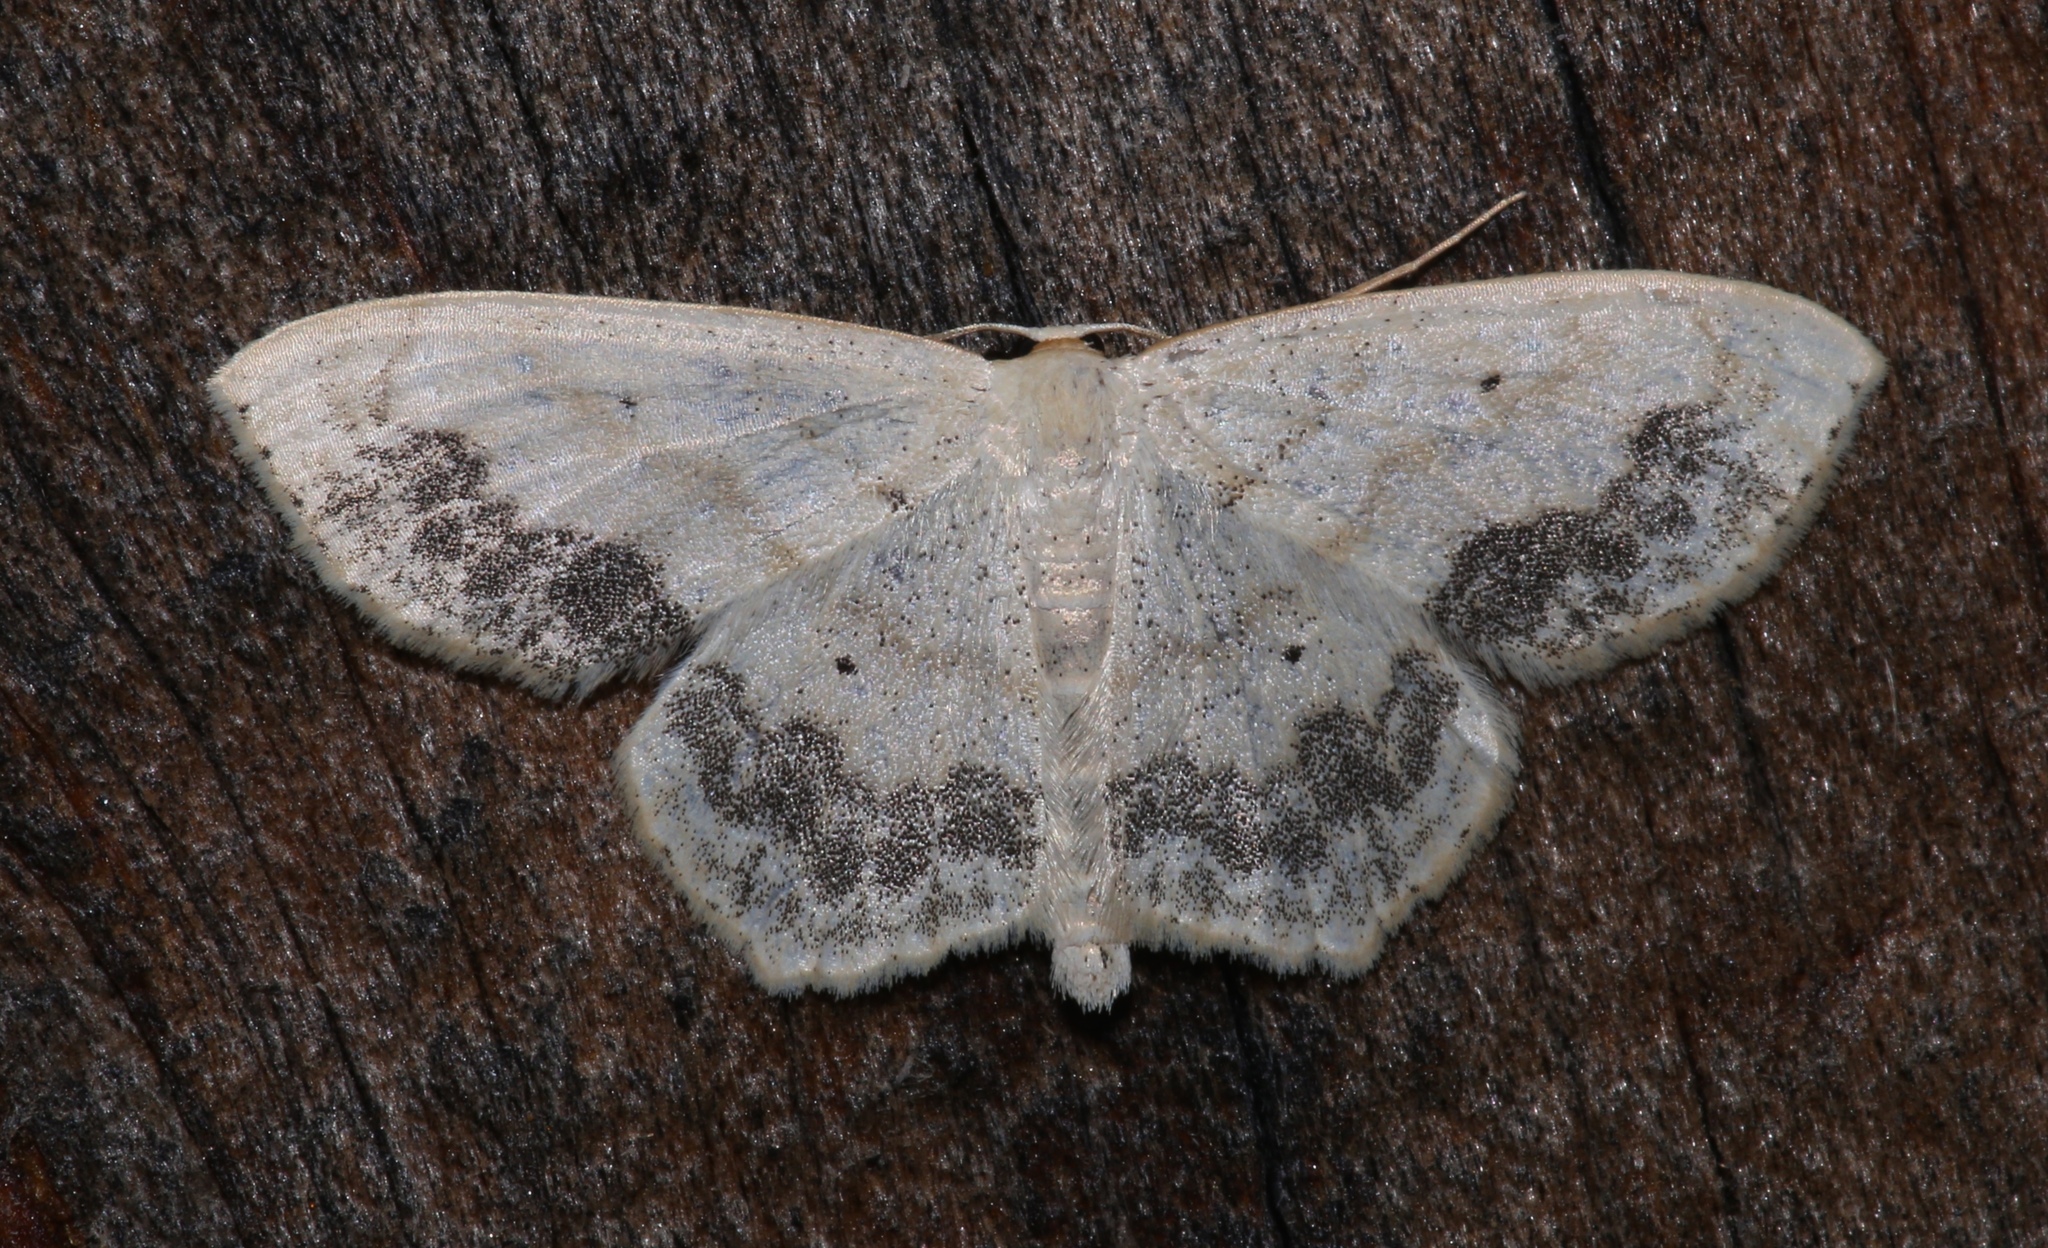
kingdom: Animalia
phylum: Arthropoda
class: Insecta
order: Lepidoptera
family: Geometridae
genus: Scopula
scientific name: Scopula limboundata
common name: Large lace border
